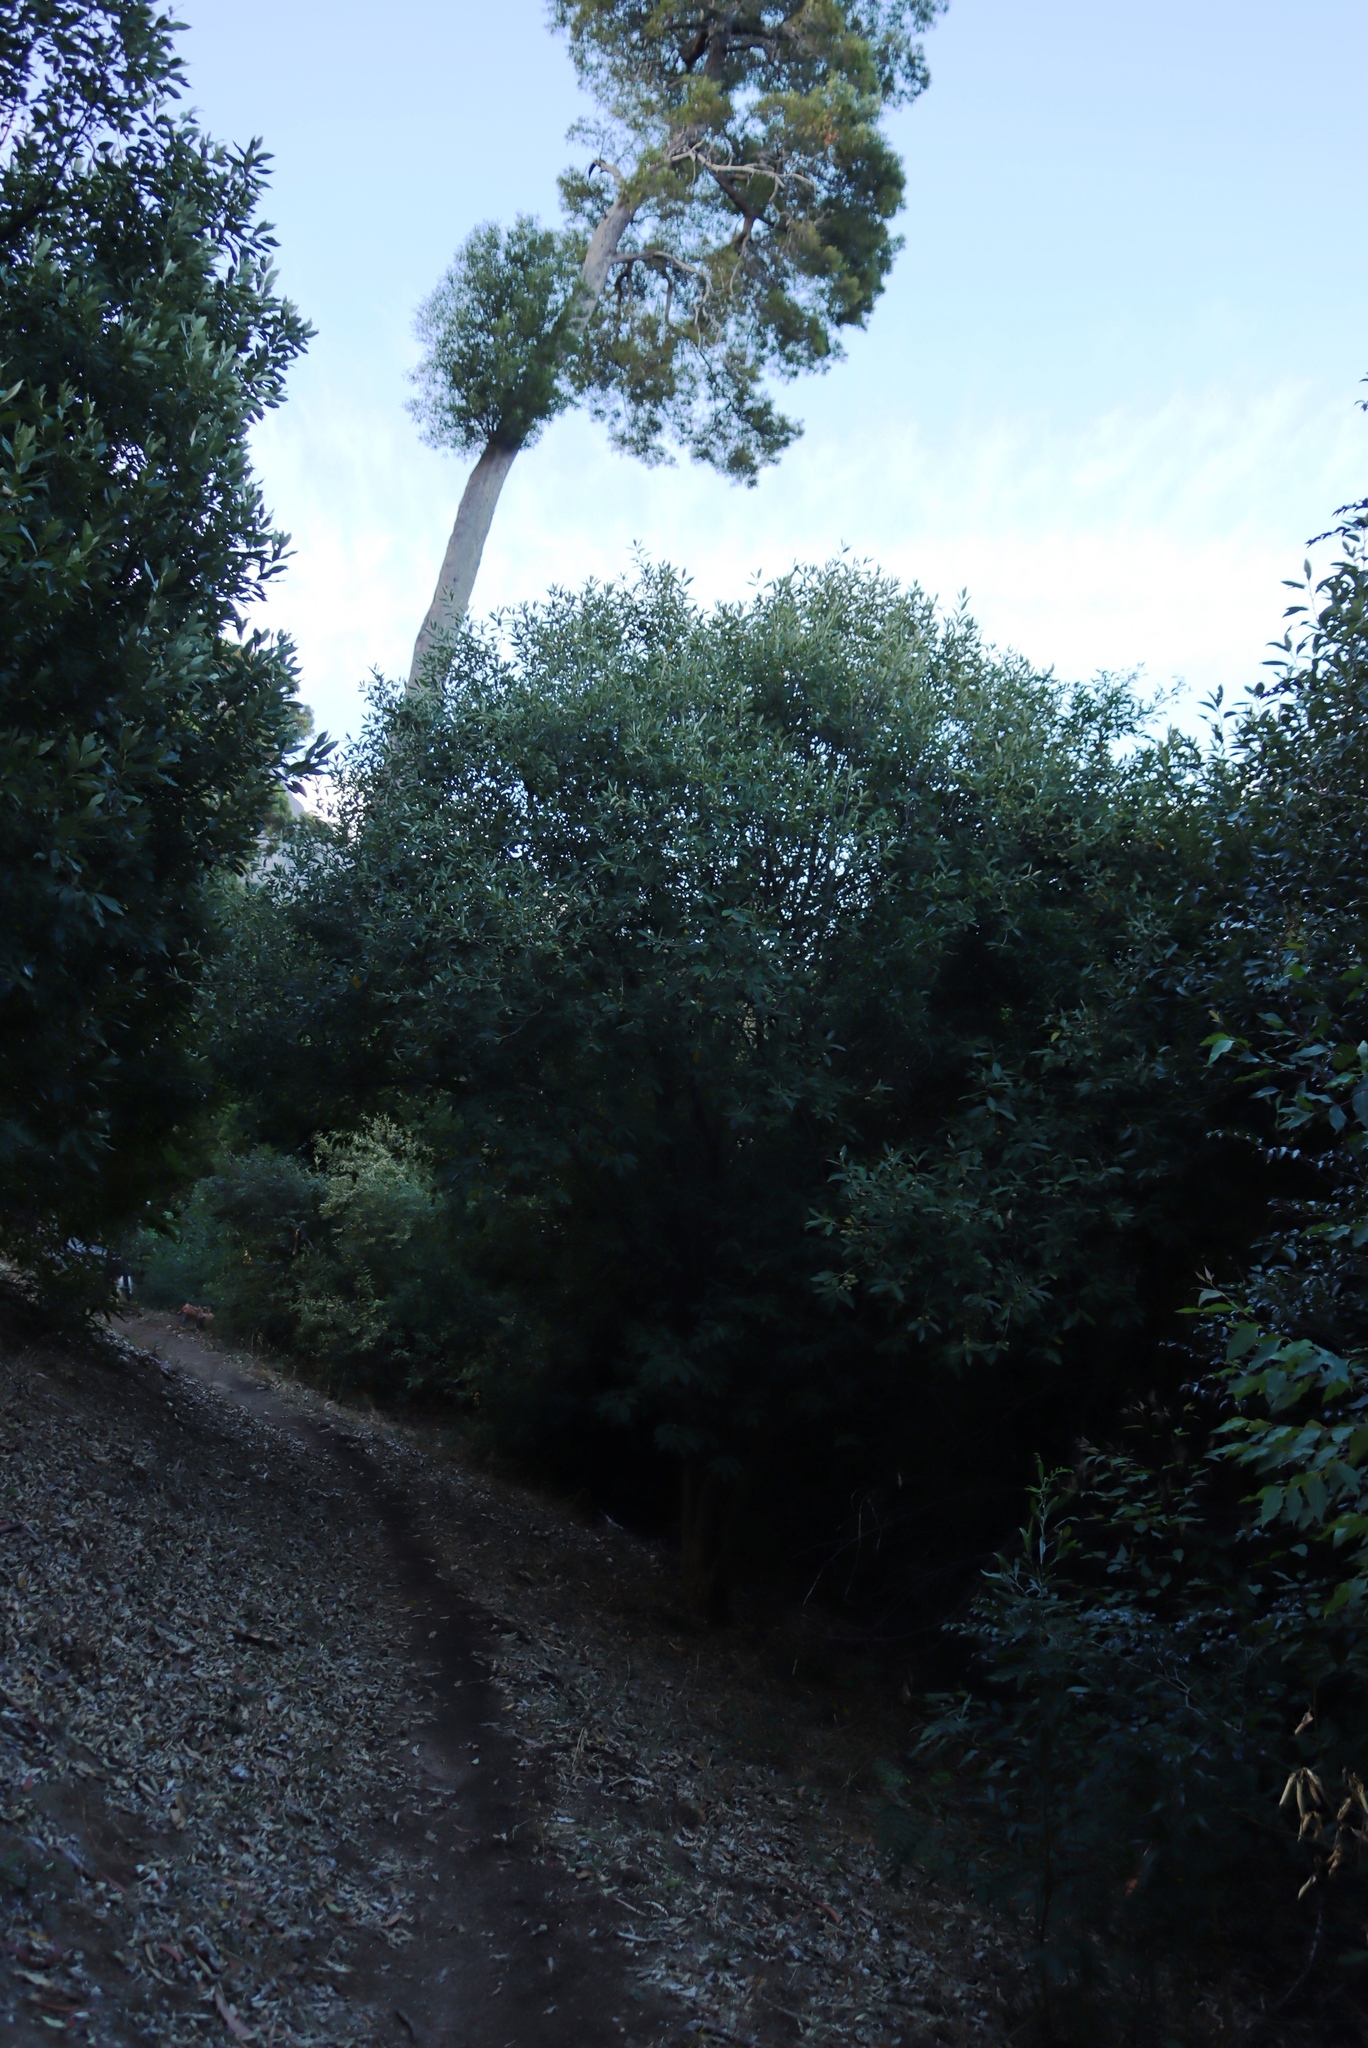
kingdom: Plantae
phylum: Tracheophyta
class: Magnoliopsida
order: Malpighiales
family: Achariaceae
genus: Kiggelaria
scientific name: Kiggelaria africana
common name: Wild peach
